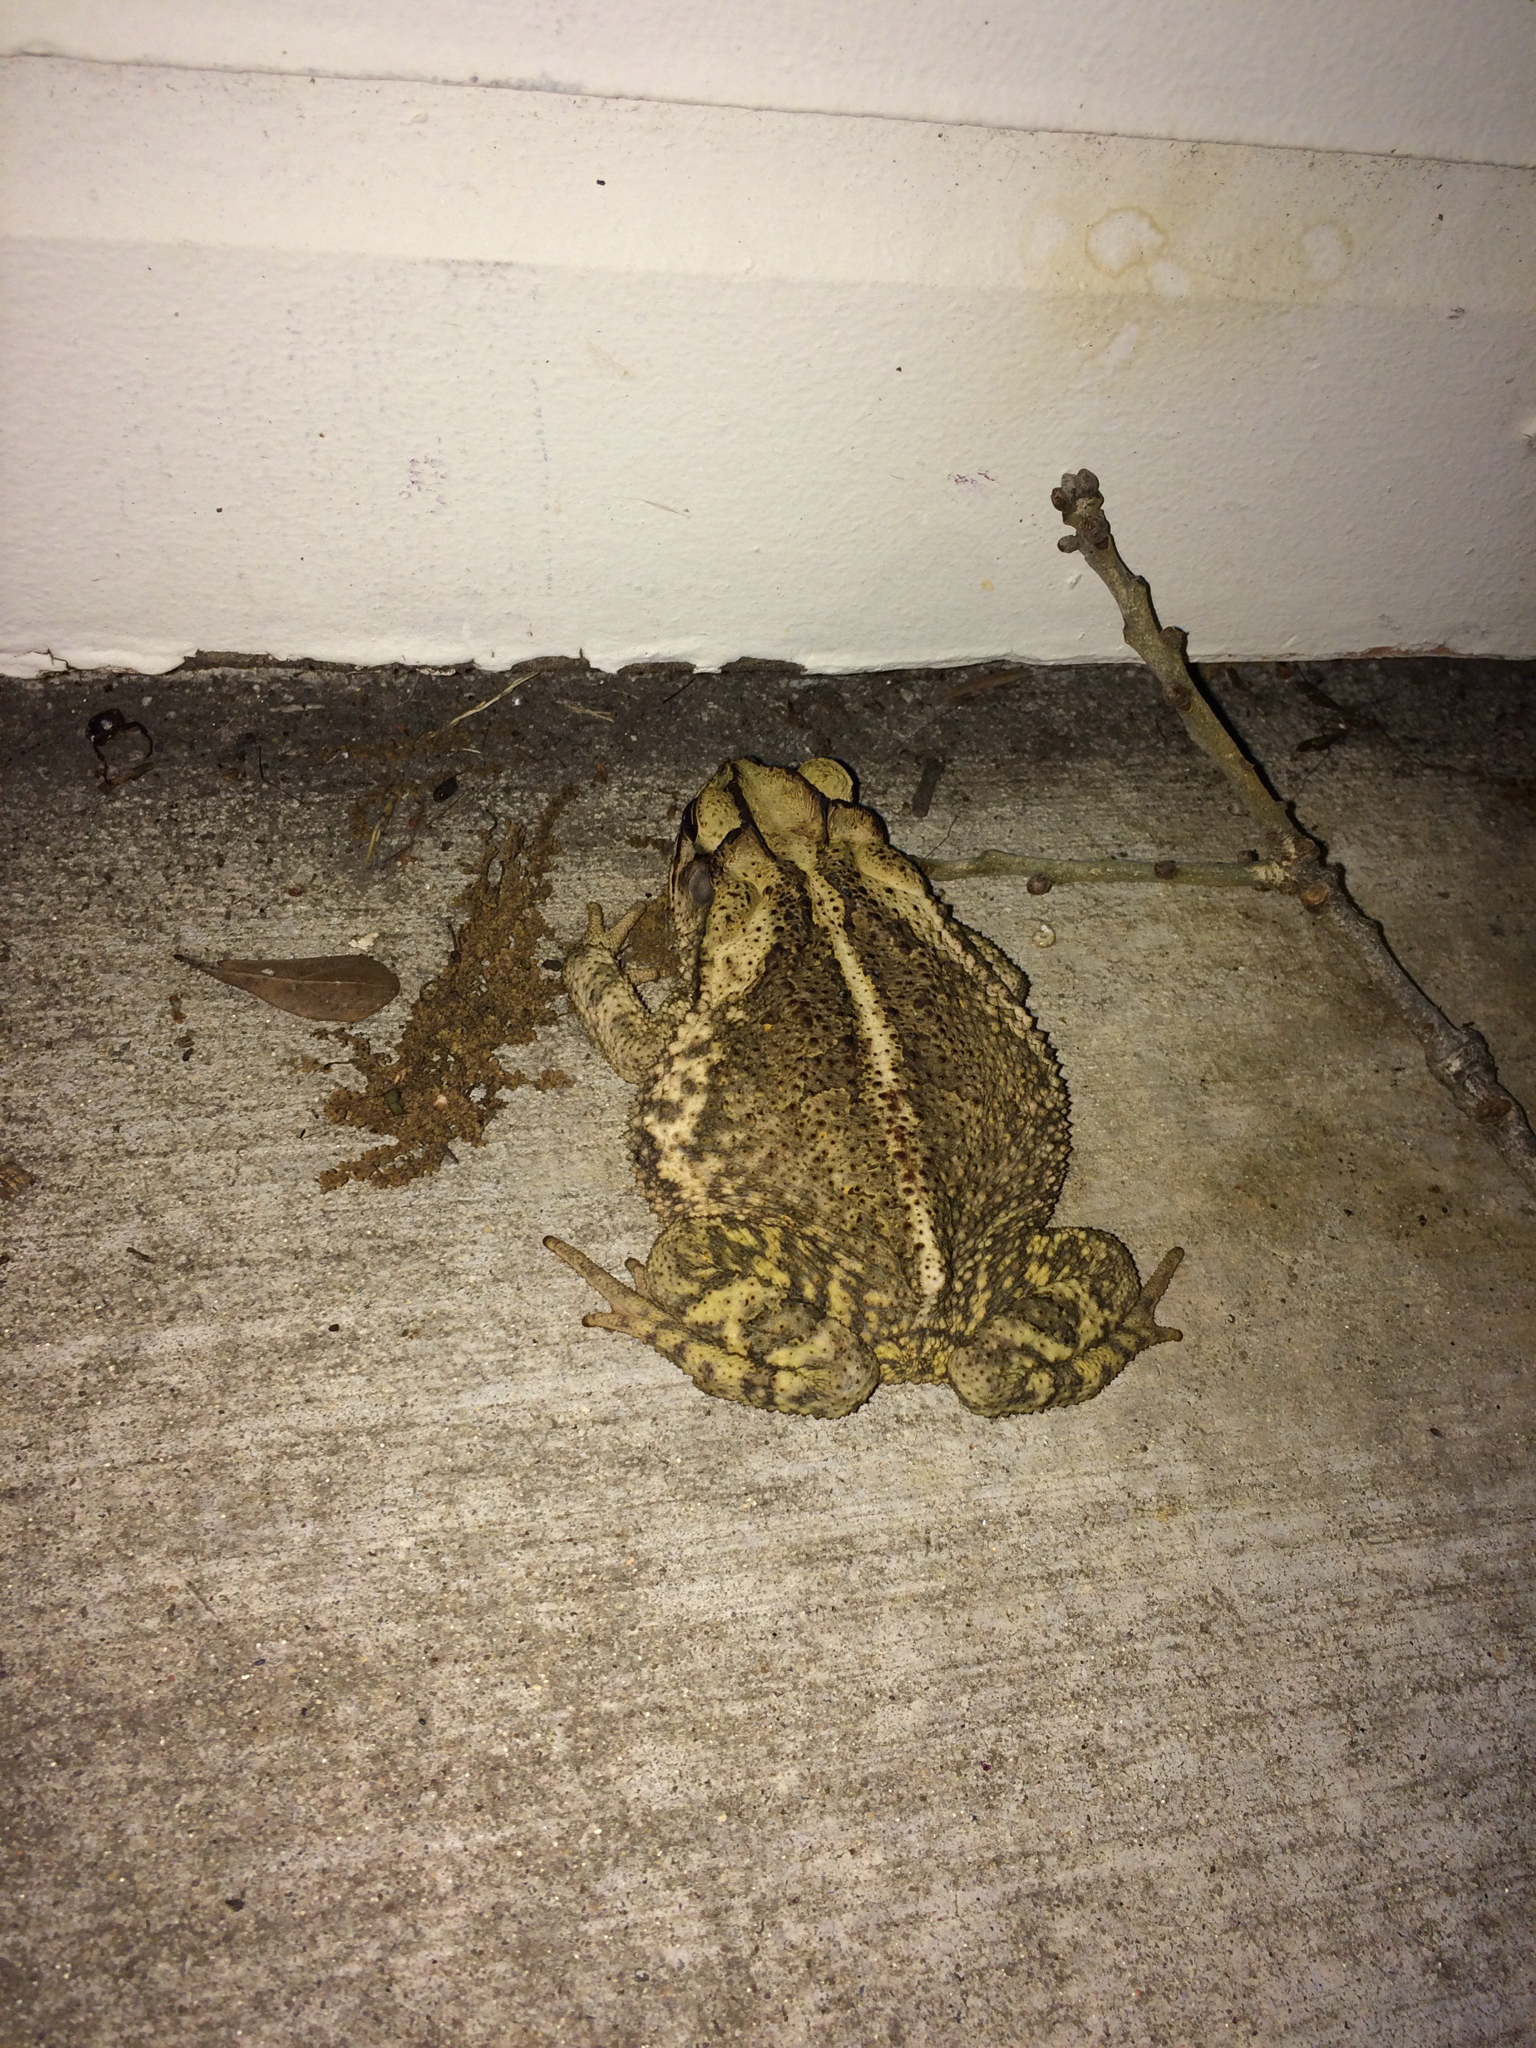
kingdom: Animalia
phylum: Chordata
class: Amphibia
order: Anura
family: Bufonidae
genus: Incilius
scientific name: Incilius nebulifer
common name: Gulf coast toad
